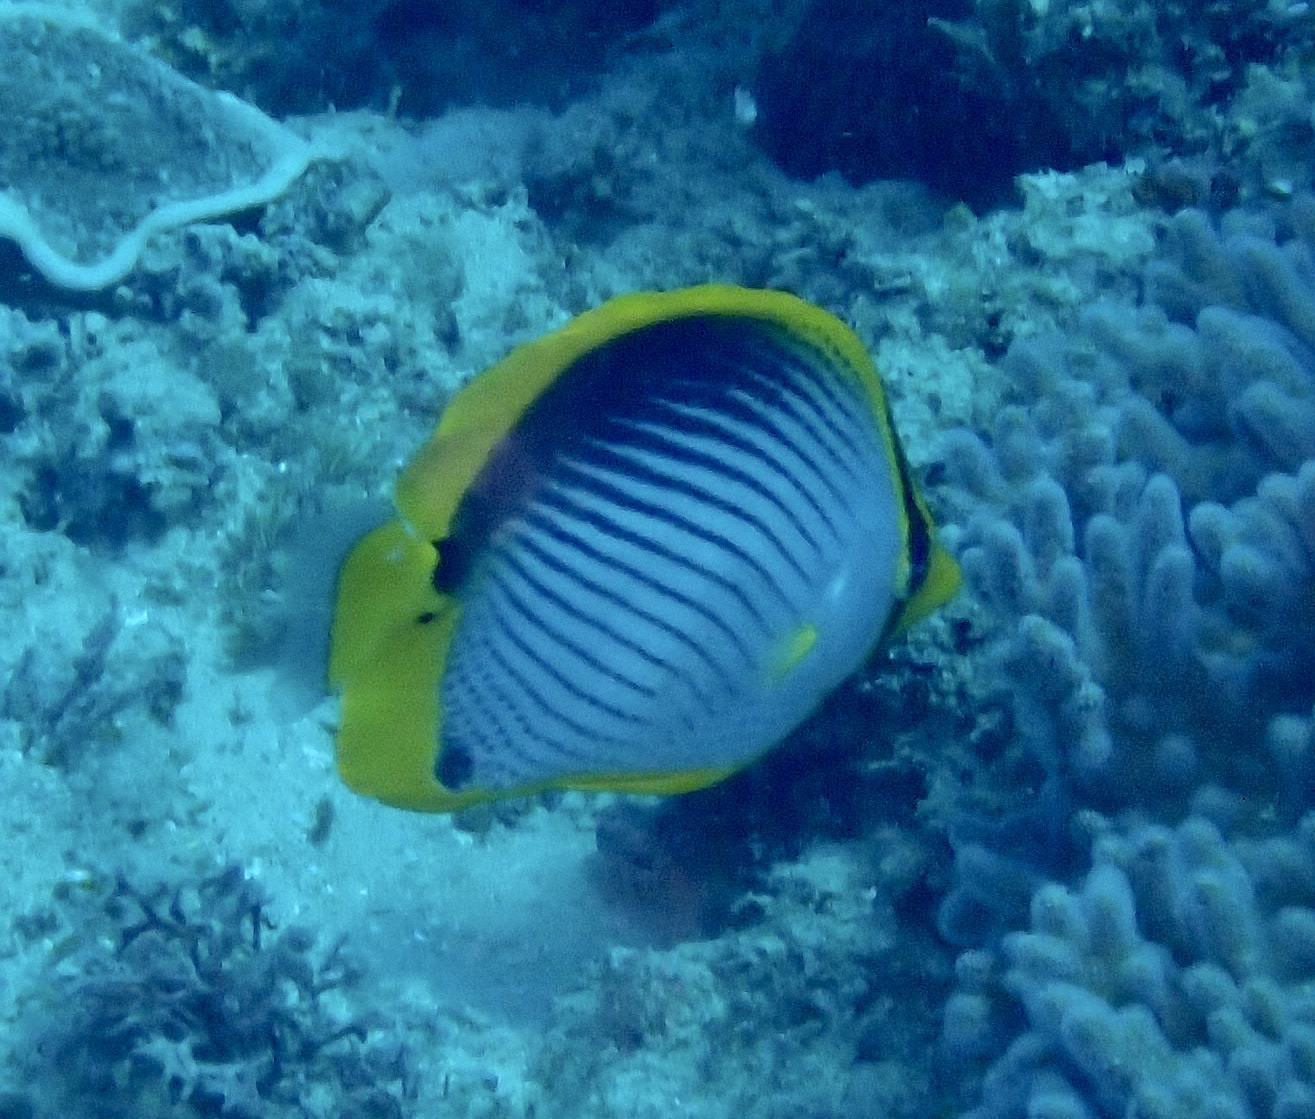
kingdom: Animalia
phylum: Chordata
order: Perciformes
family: Chaetodontidae
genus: Chaetodon
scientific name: Chaetodon melannotus
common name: Blackback butterflyfish
